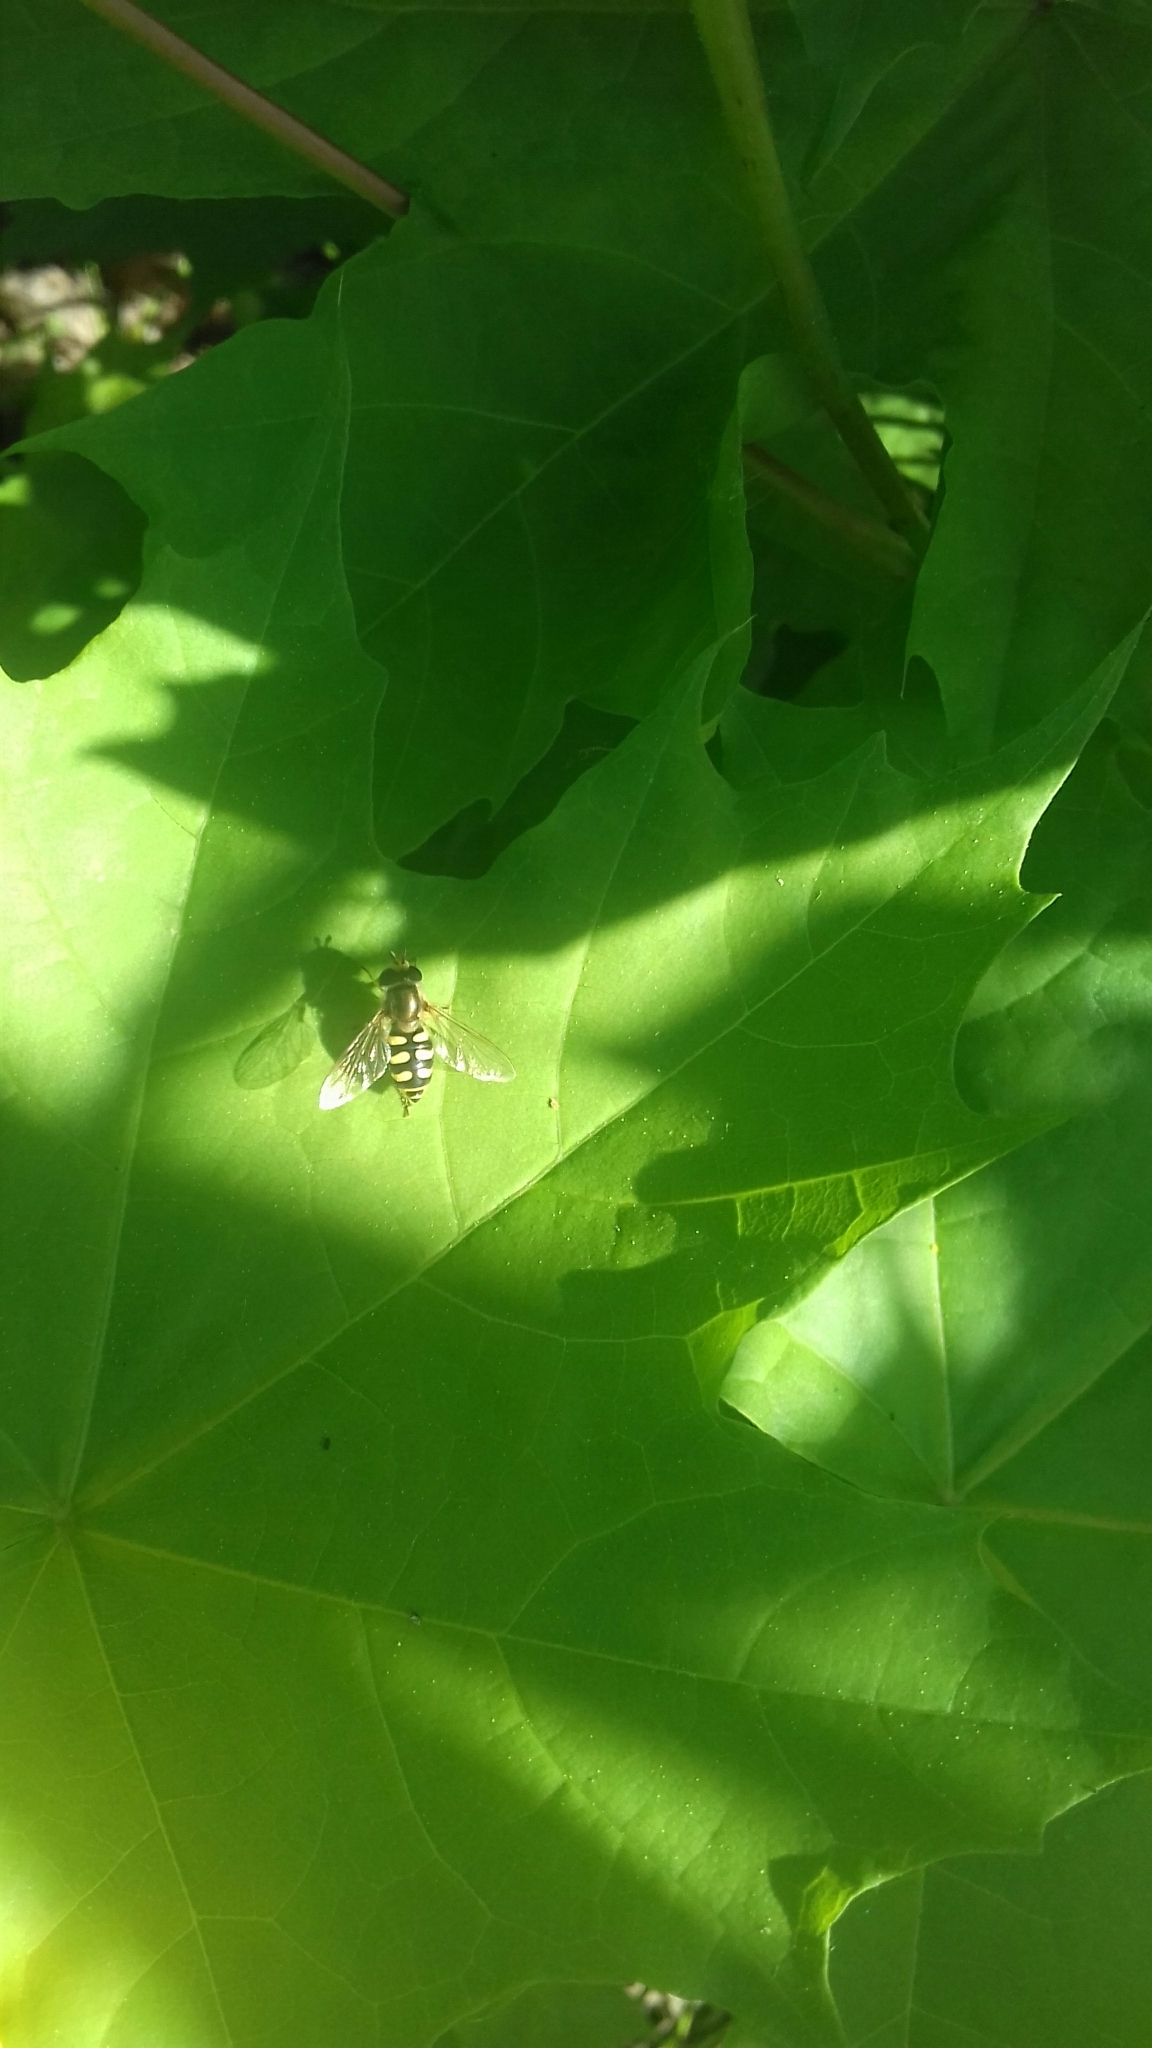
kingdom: Animalia
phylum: Arthropoda
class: Insecta
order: Diptera
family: Syrphidae
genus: Eupeodes
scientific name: Eupeodes corollae
